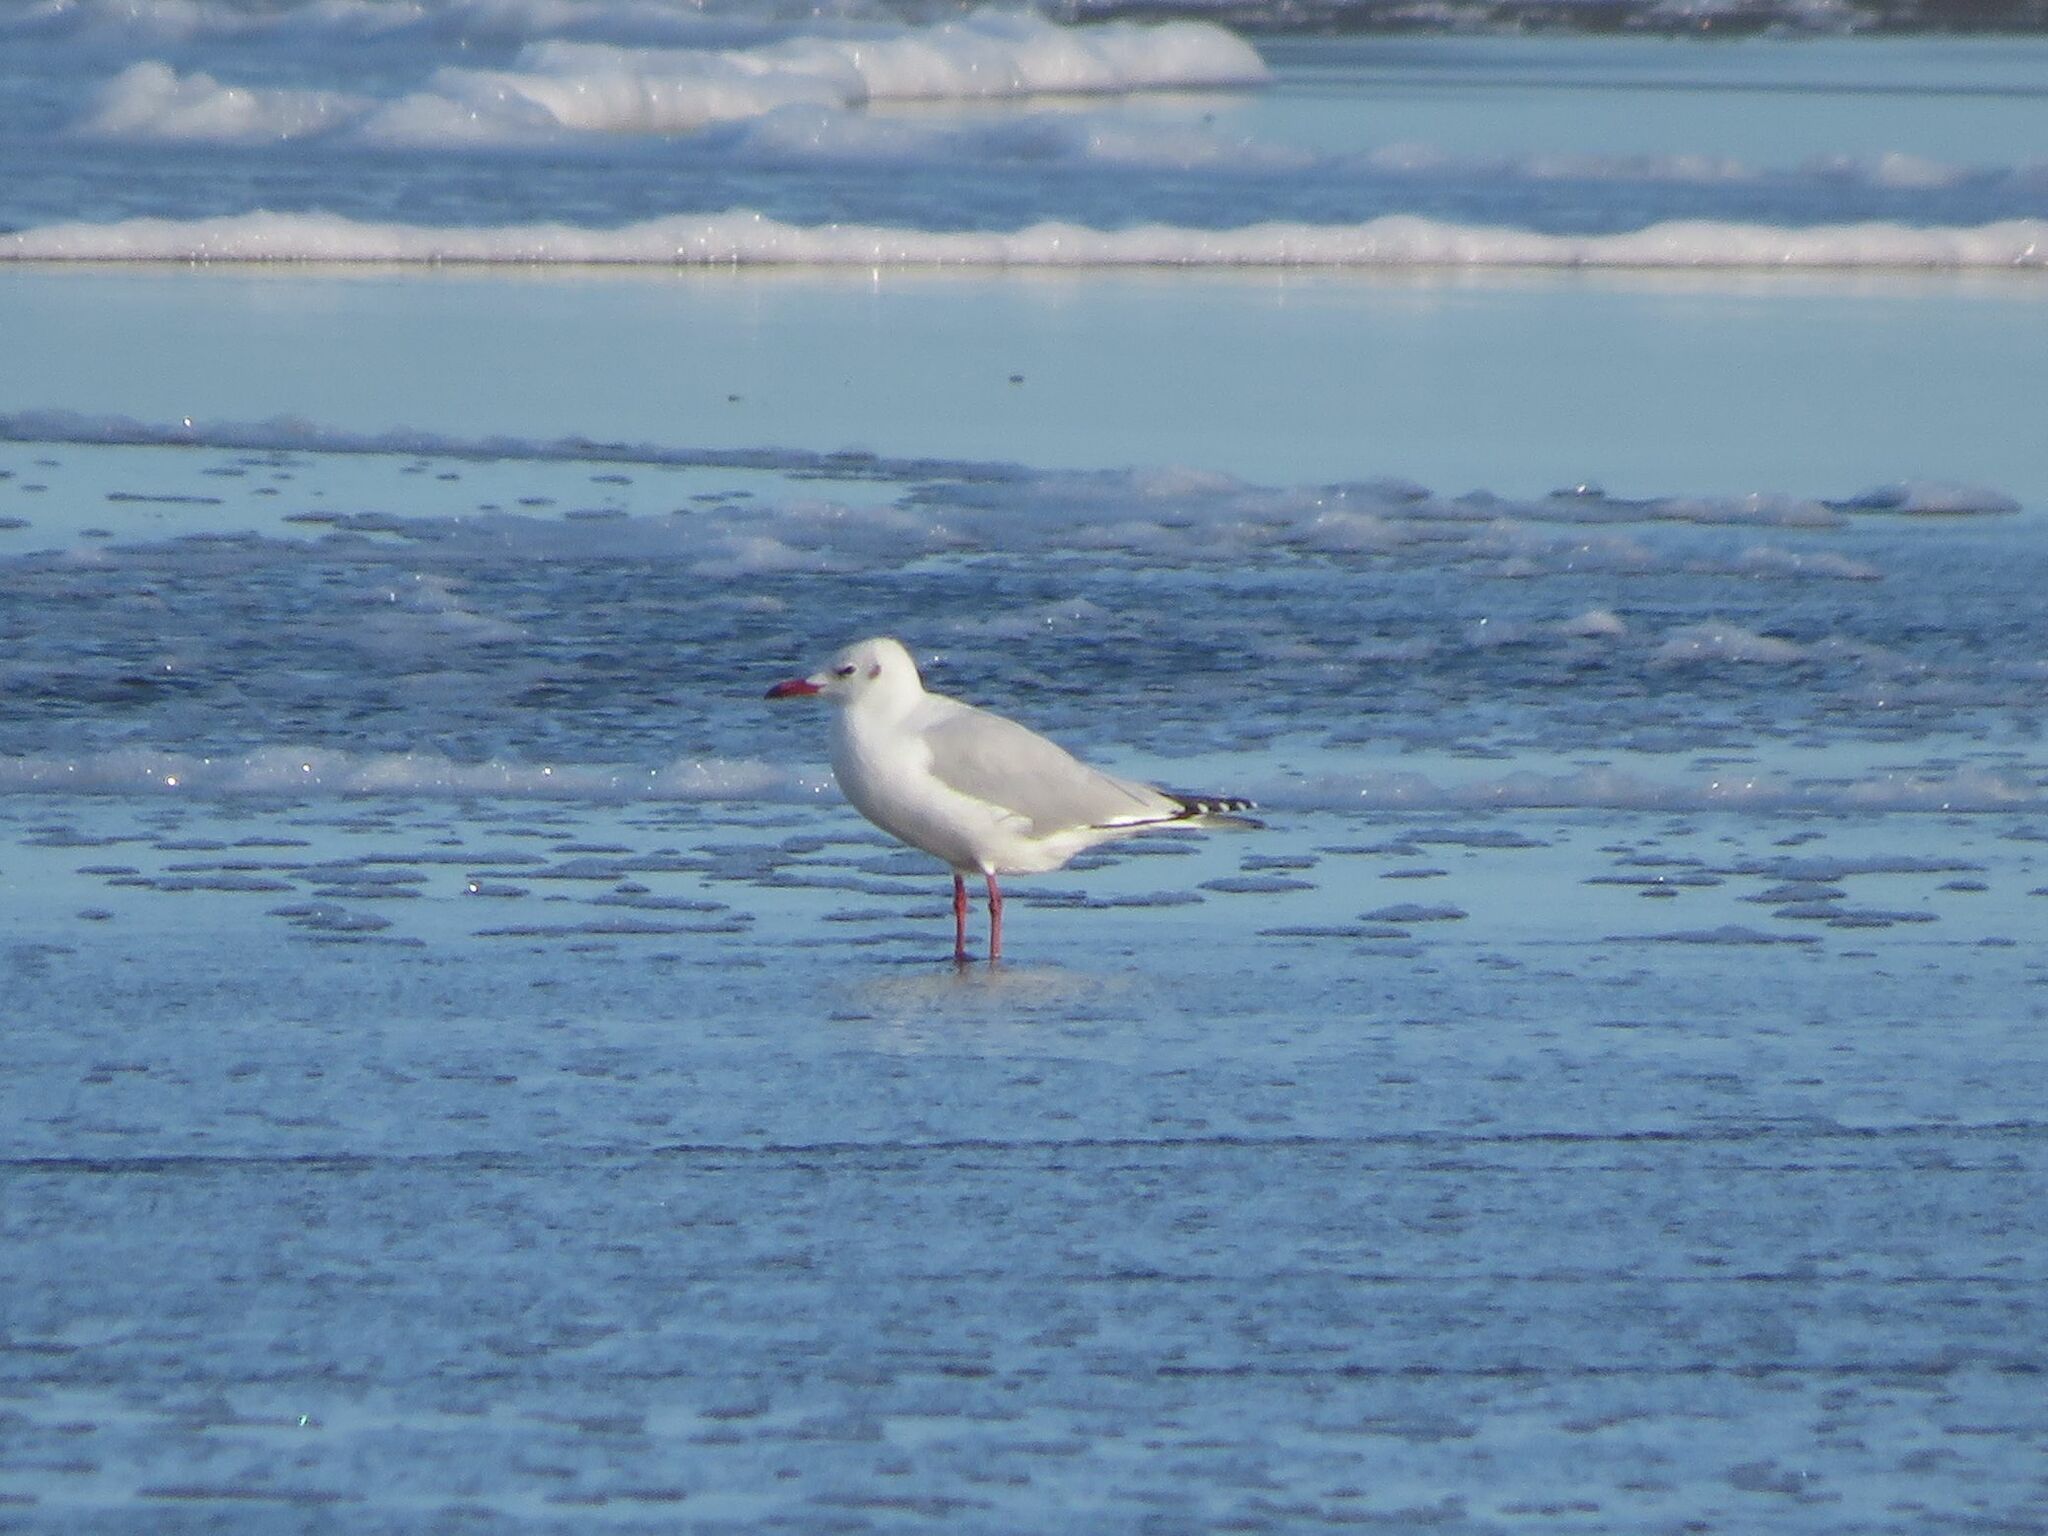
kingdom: Animalia
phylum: Chordata
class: Aves
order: Charadriiformes
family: Laridae
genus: Chroicocephalus
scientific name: Chroicocephalus maculipennis
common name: Brown-hooded gull
